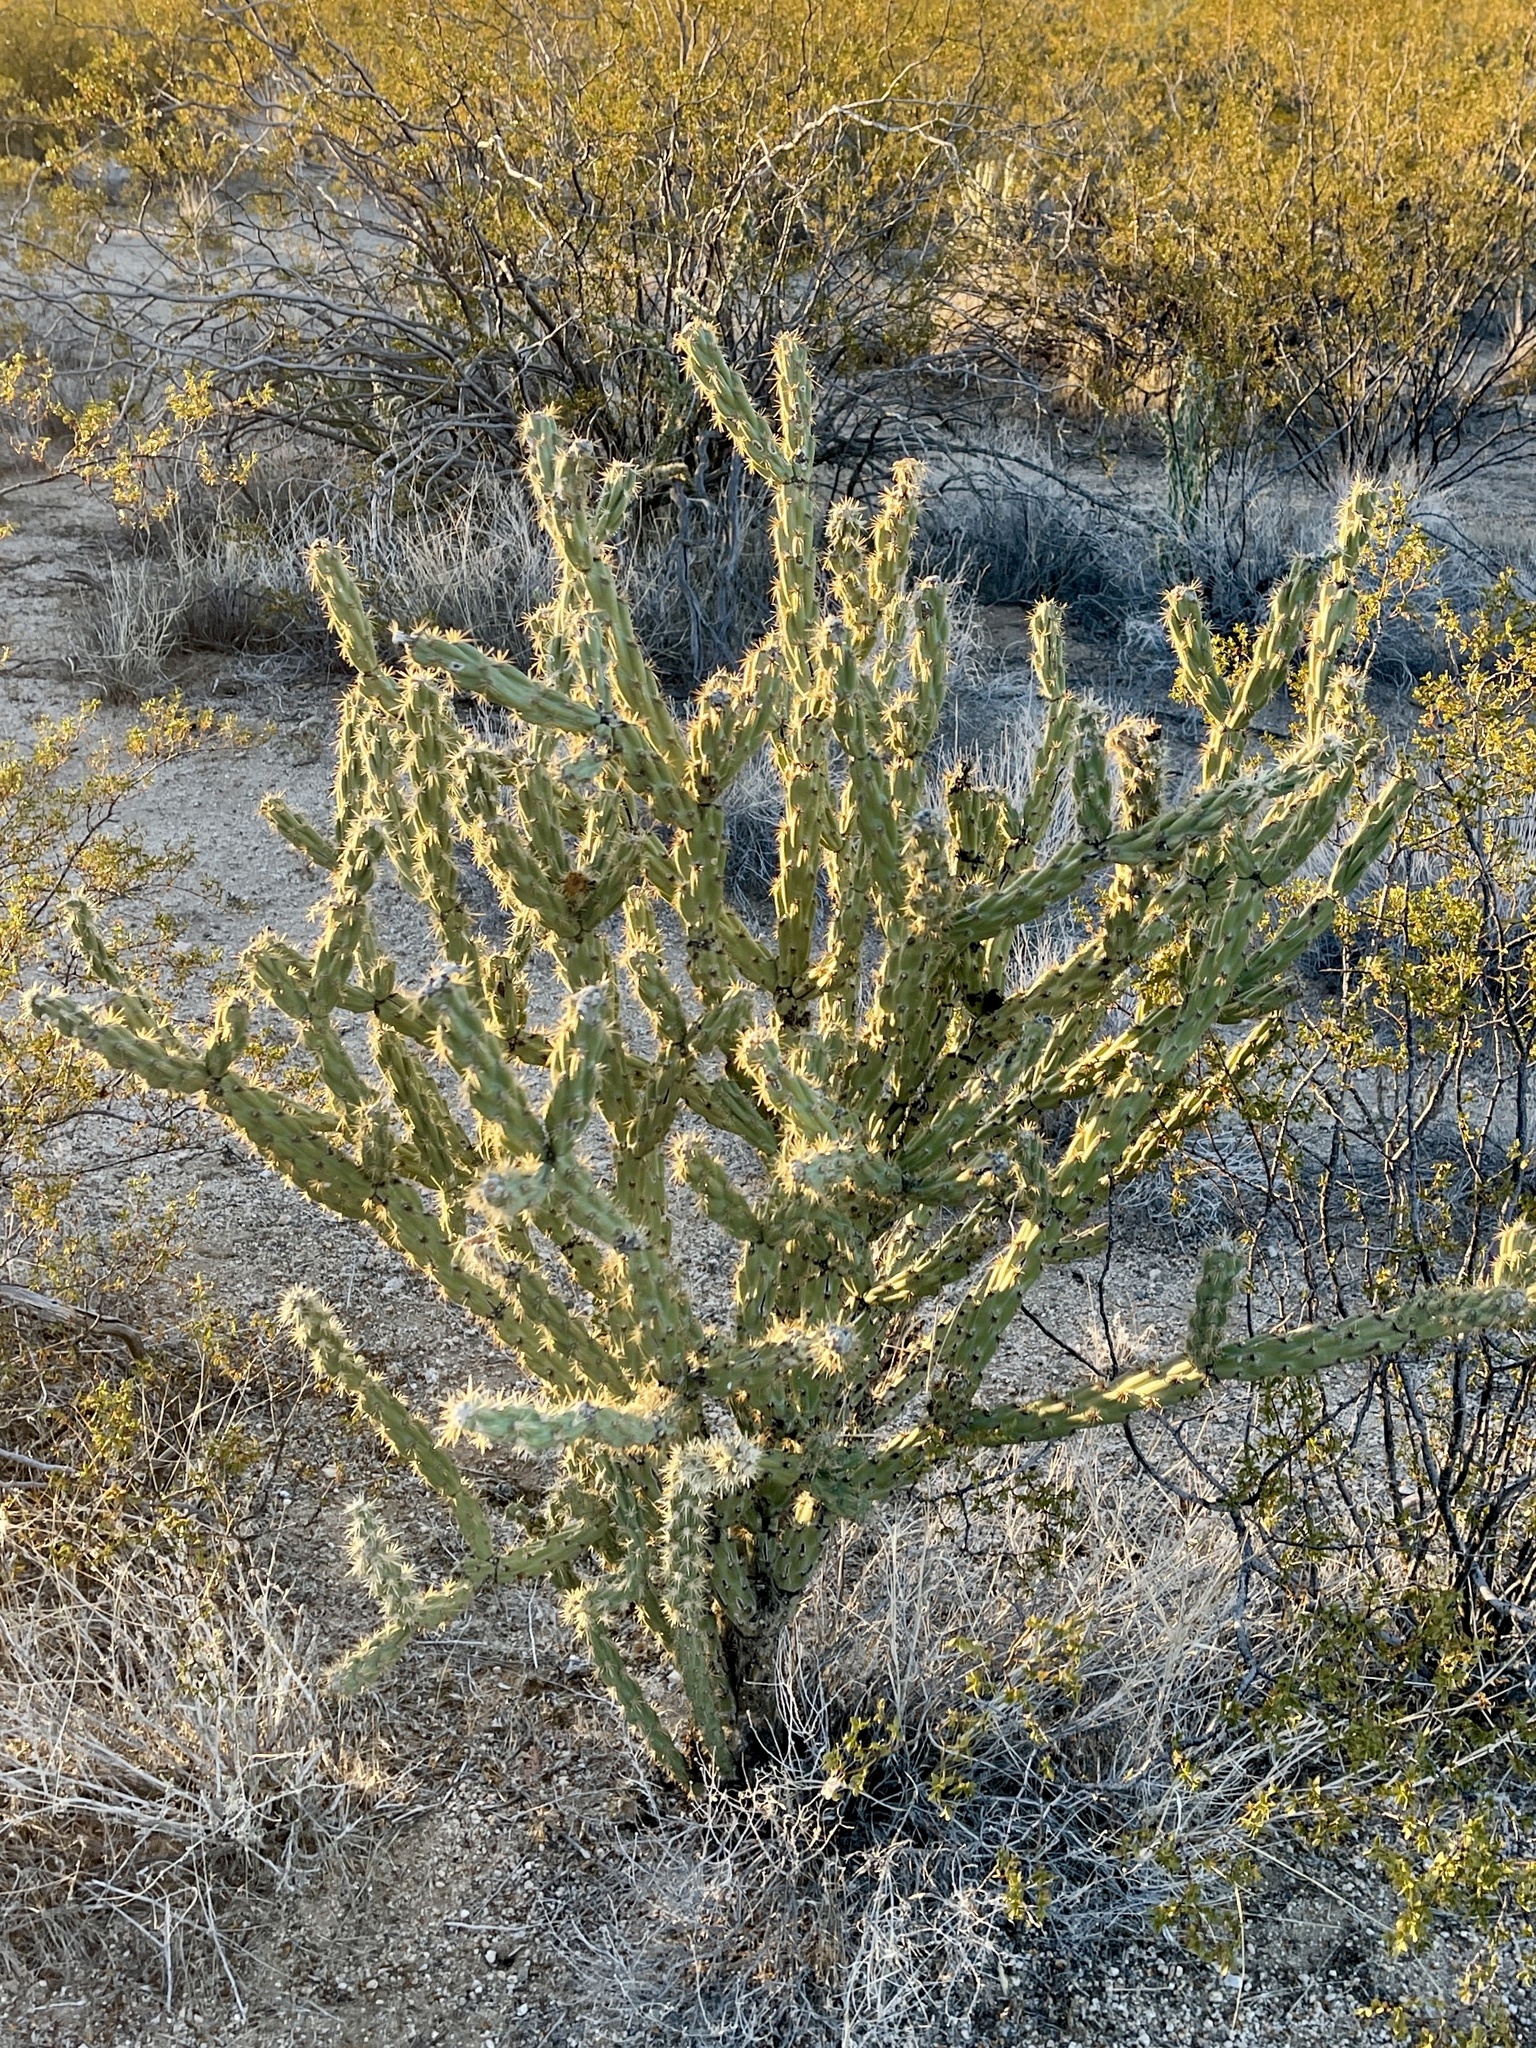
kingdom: Plantae
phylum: Tracheophyta
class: Magnoliopsida
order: Caryophyllales
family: Cactaceae
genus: Cylindropuntia
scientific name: Cylindropuntia acanthocarpa
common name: Buckhorn cholla
